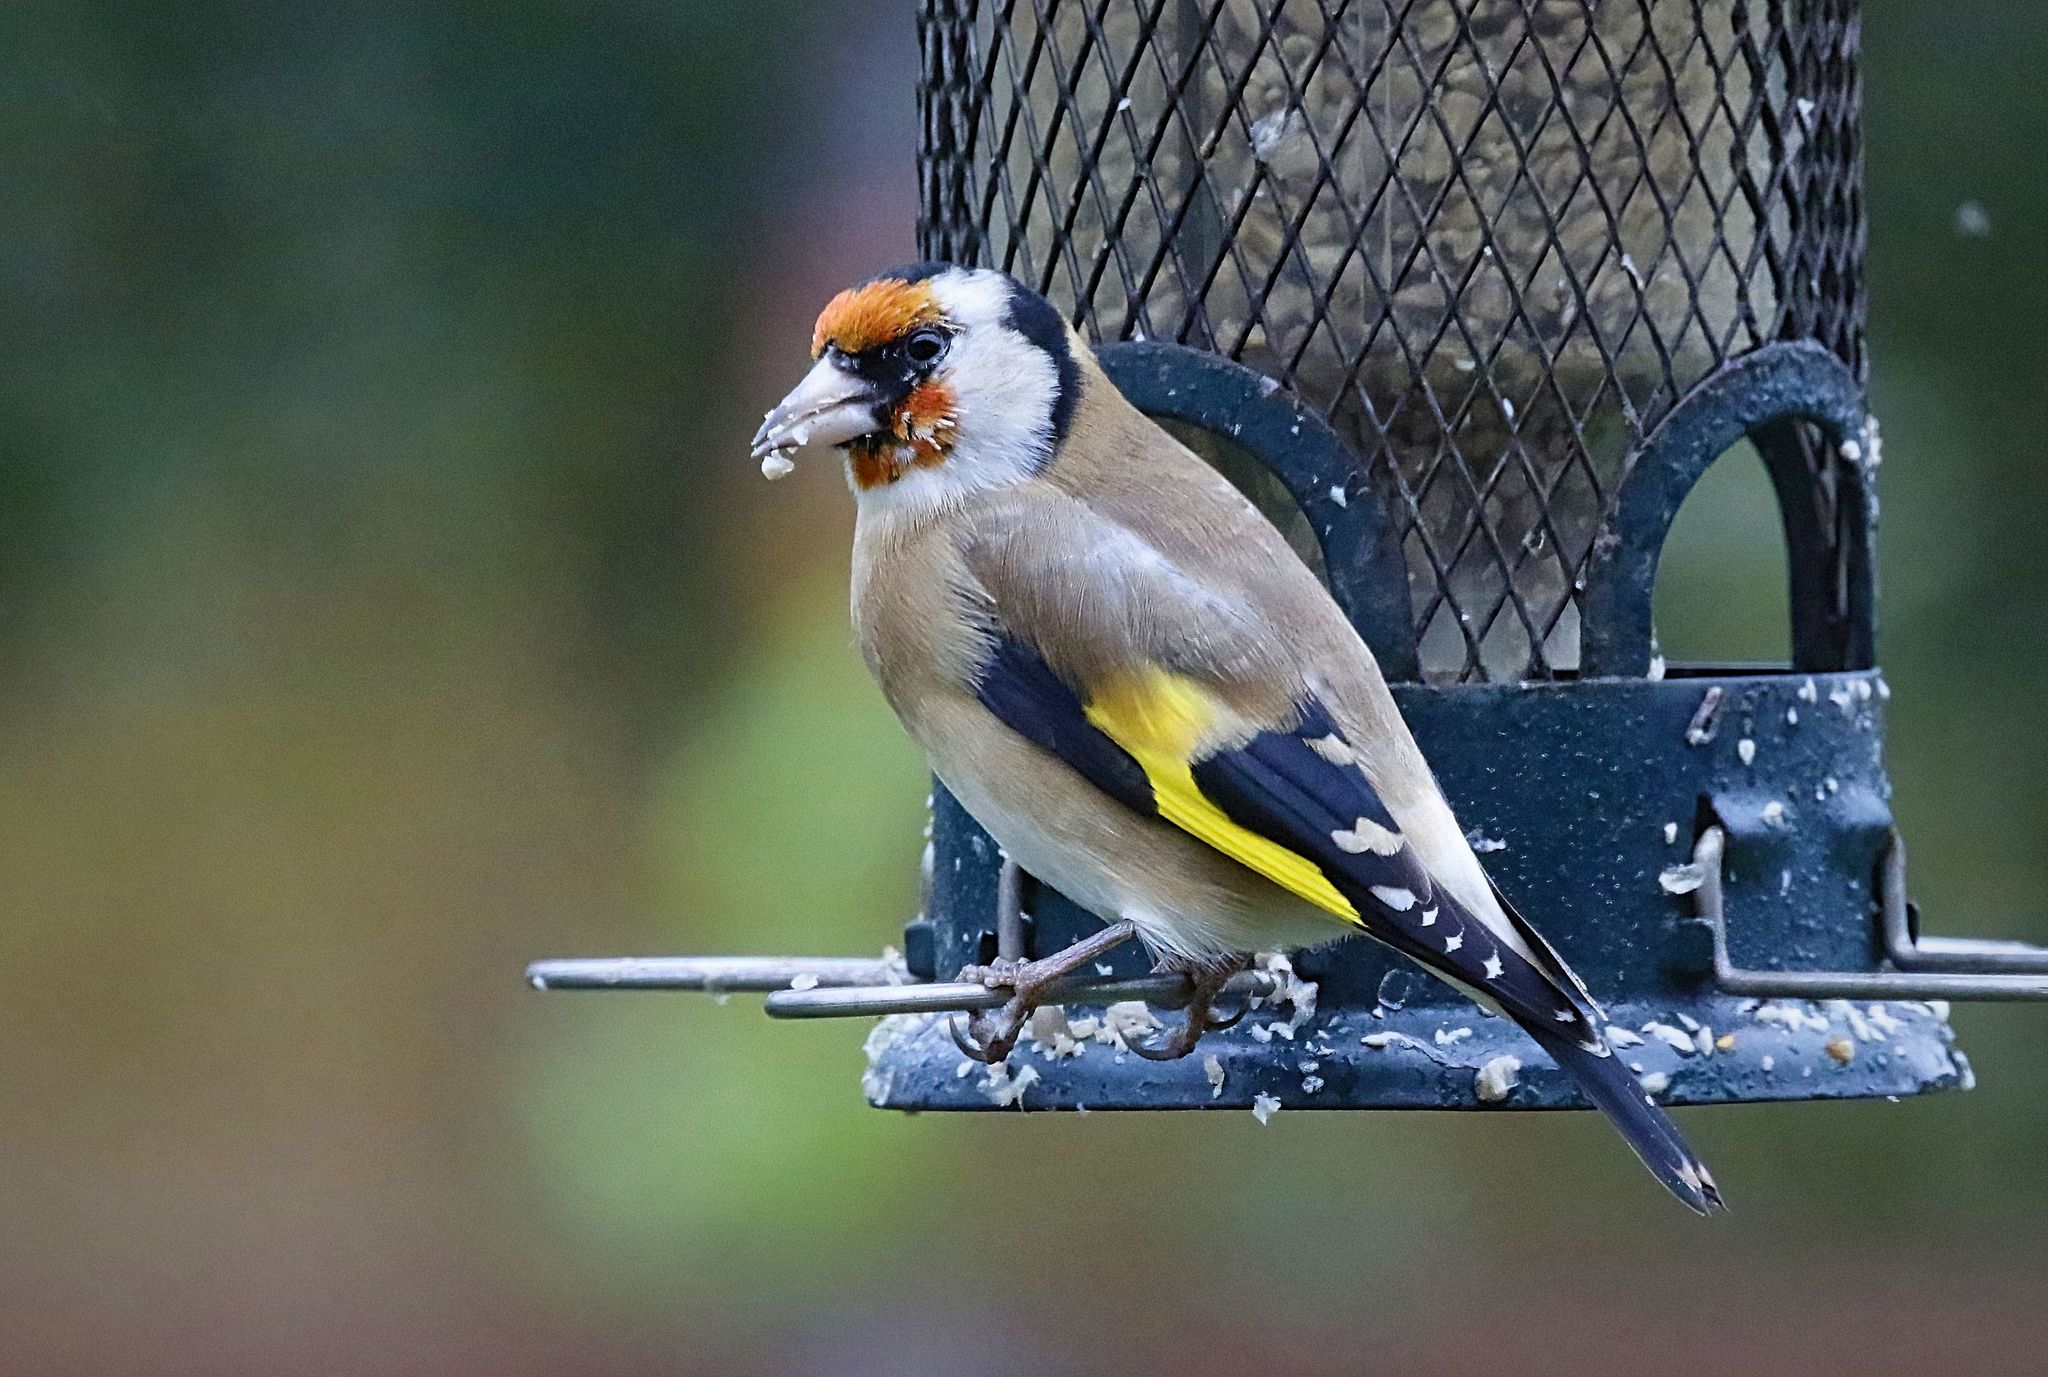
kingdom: Animalia
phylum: Chordata
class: Aves
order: Passeriformes
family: Fringillidae
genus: Carduelis
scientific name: Carduelis carduelis
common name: European goldfinch
